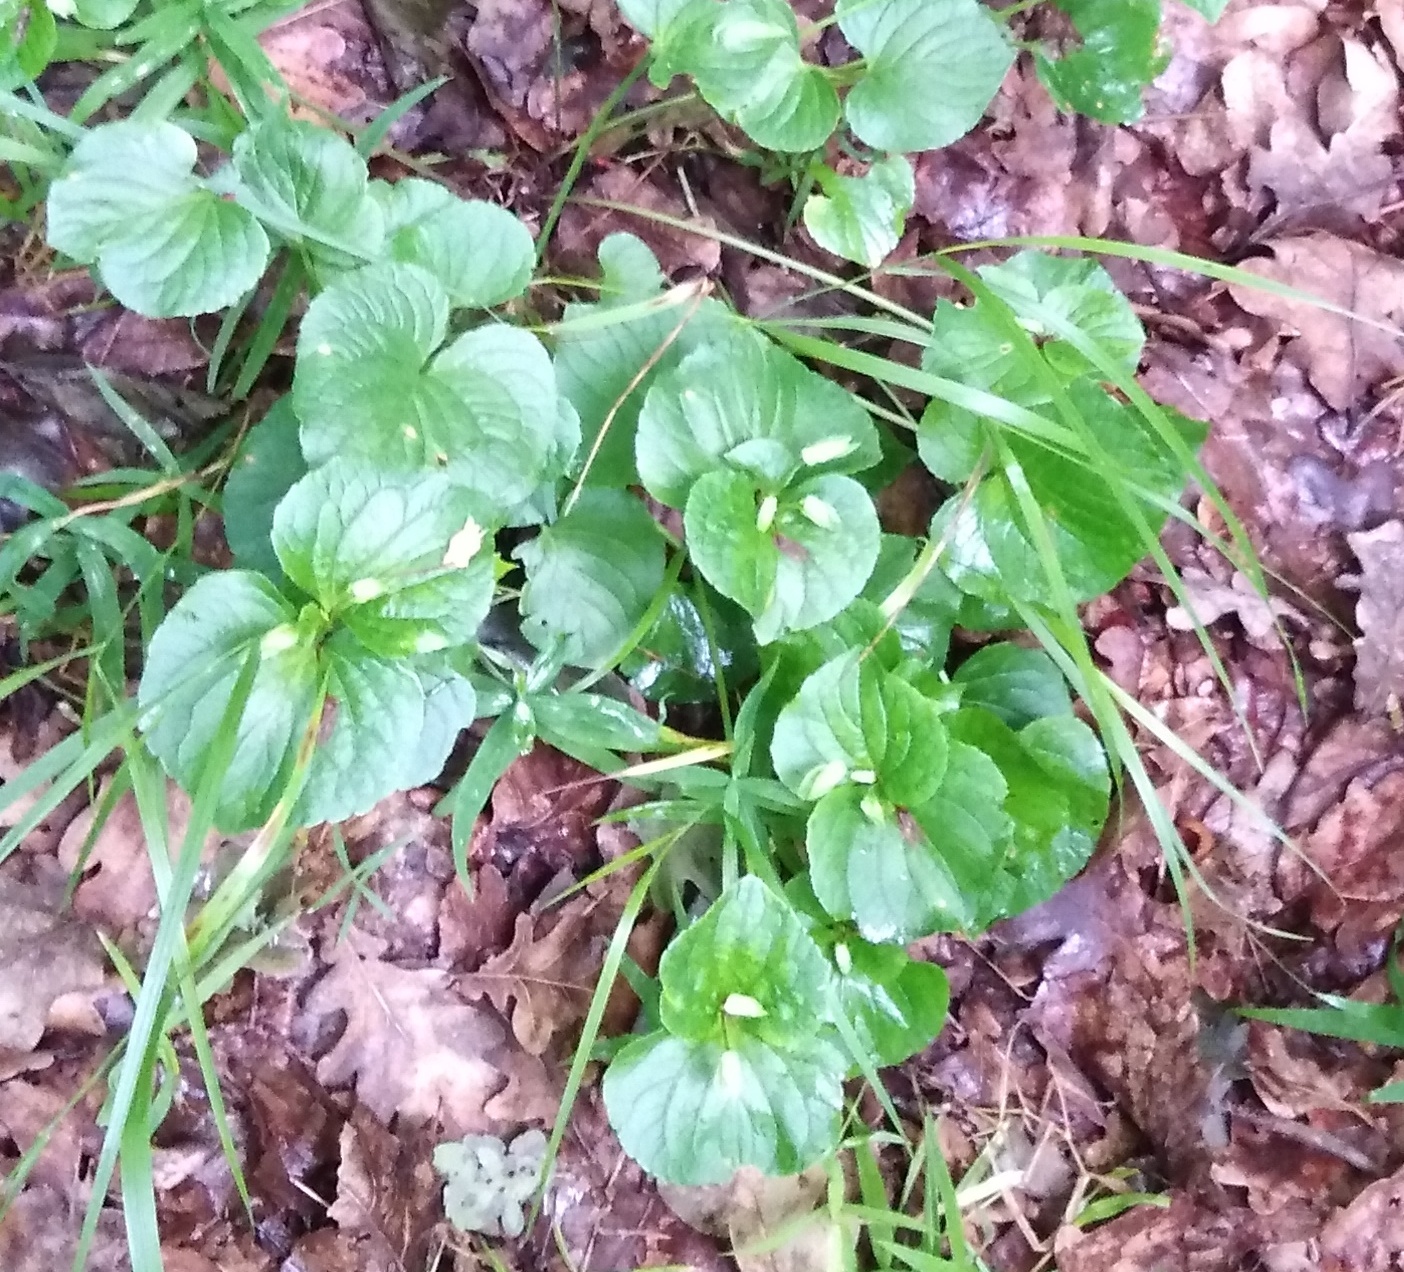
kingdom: Plantae
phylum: Tracheophyta
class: Magnoliopsida
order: Malpighiales
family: Violaceae
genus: Viola
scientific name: Viola mirabilis
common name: Wonder violet
